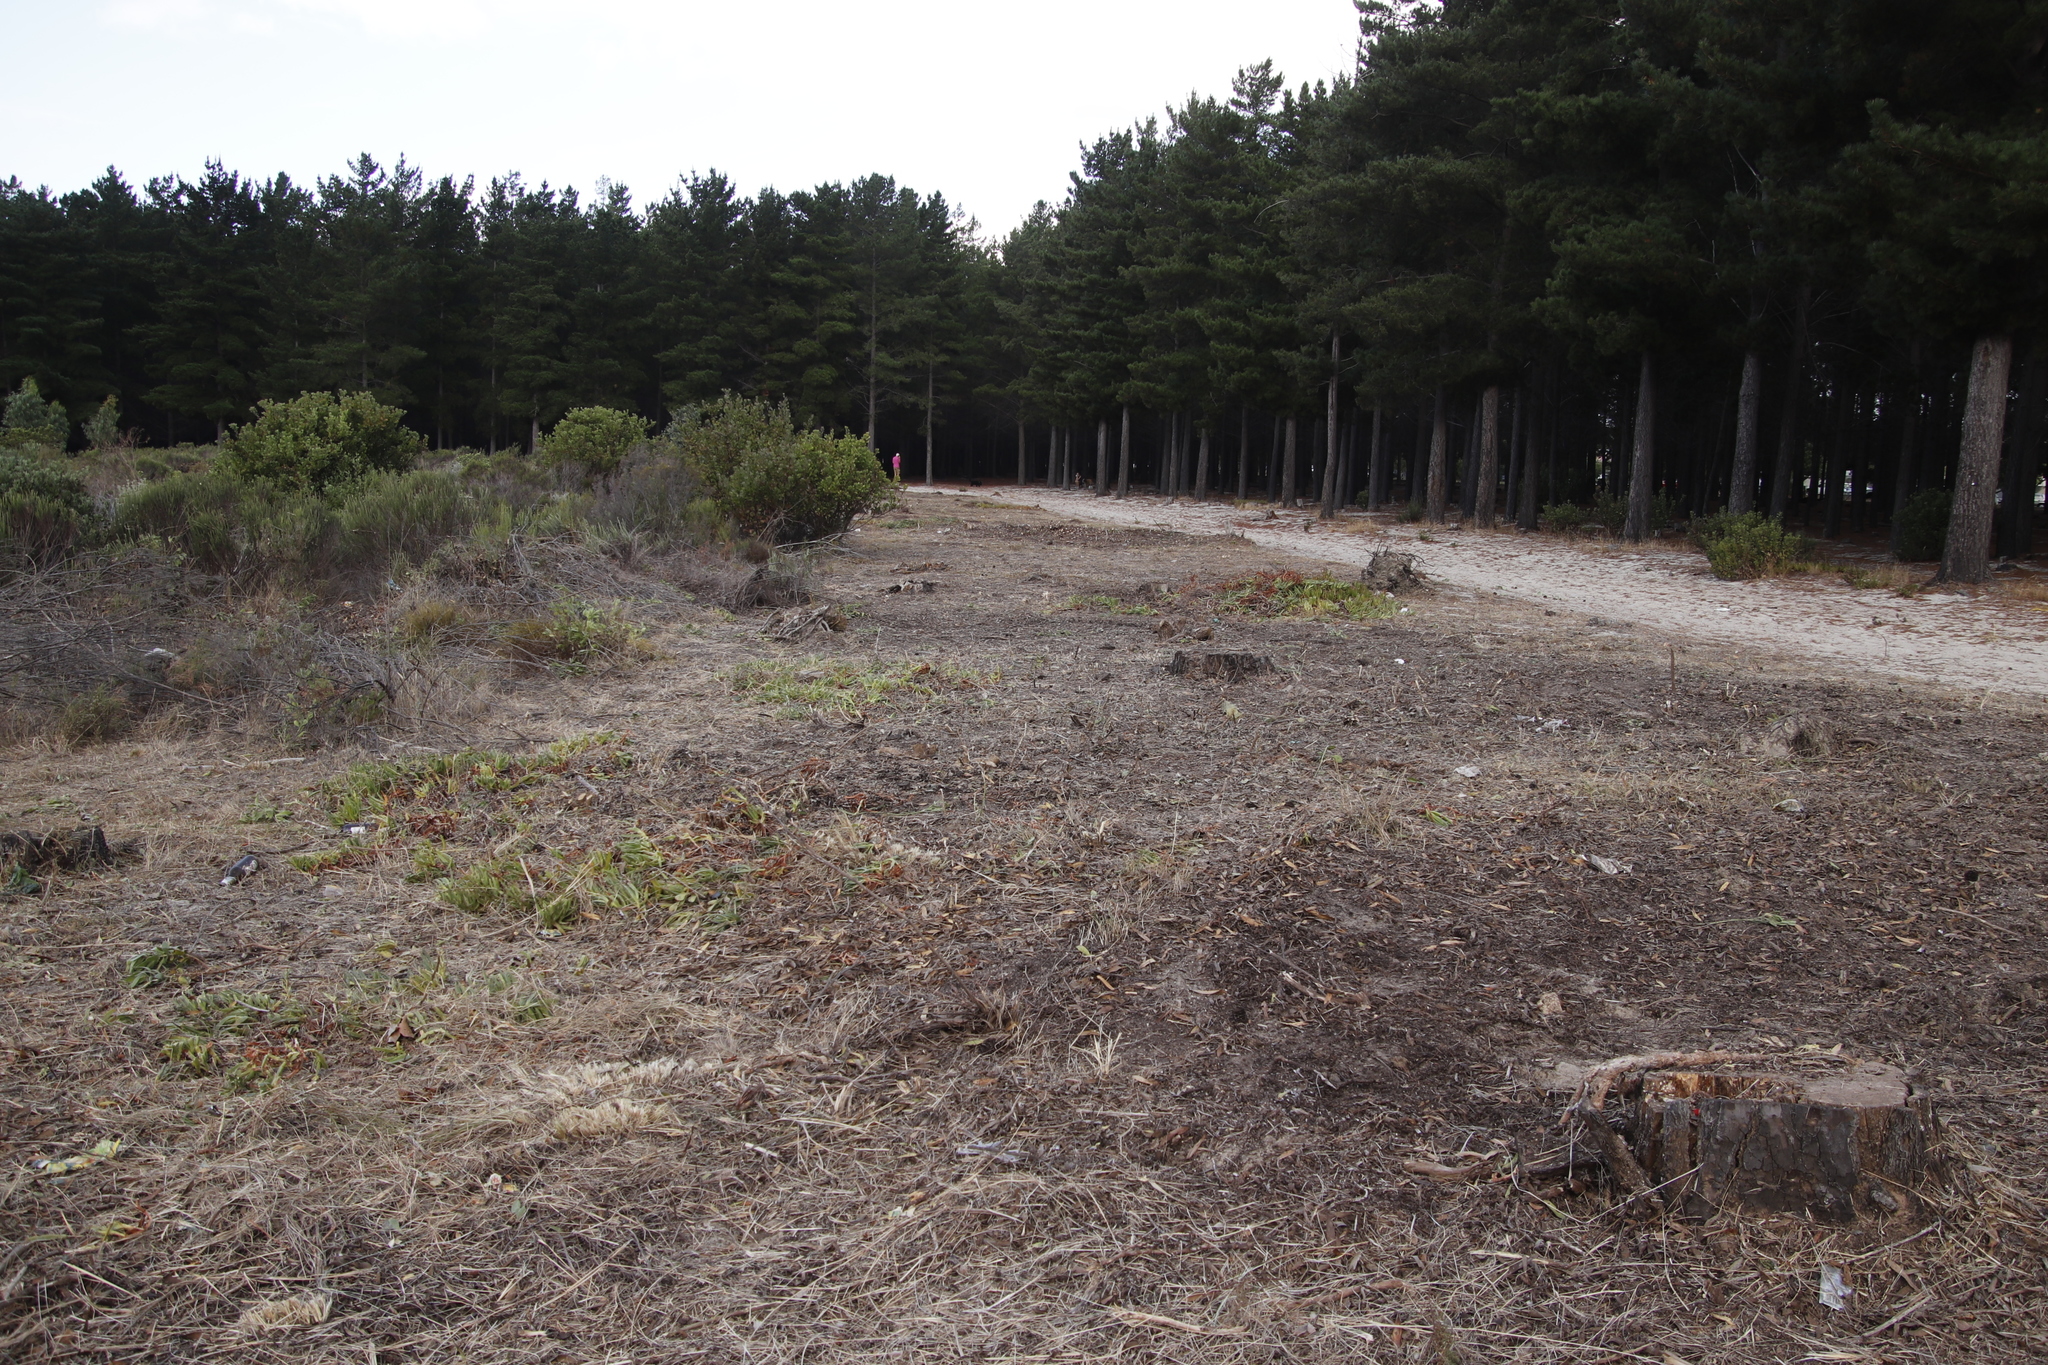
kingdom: Plantae
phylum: Tracheophyta
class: Magnoliopsida
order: Caryophyllales
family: Aizoaceae
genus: Carpobrotus
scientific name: Carpobrotus edulis
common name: Hottentot-fig
